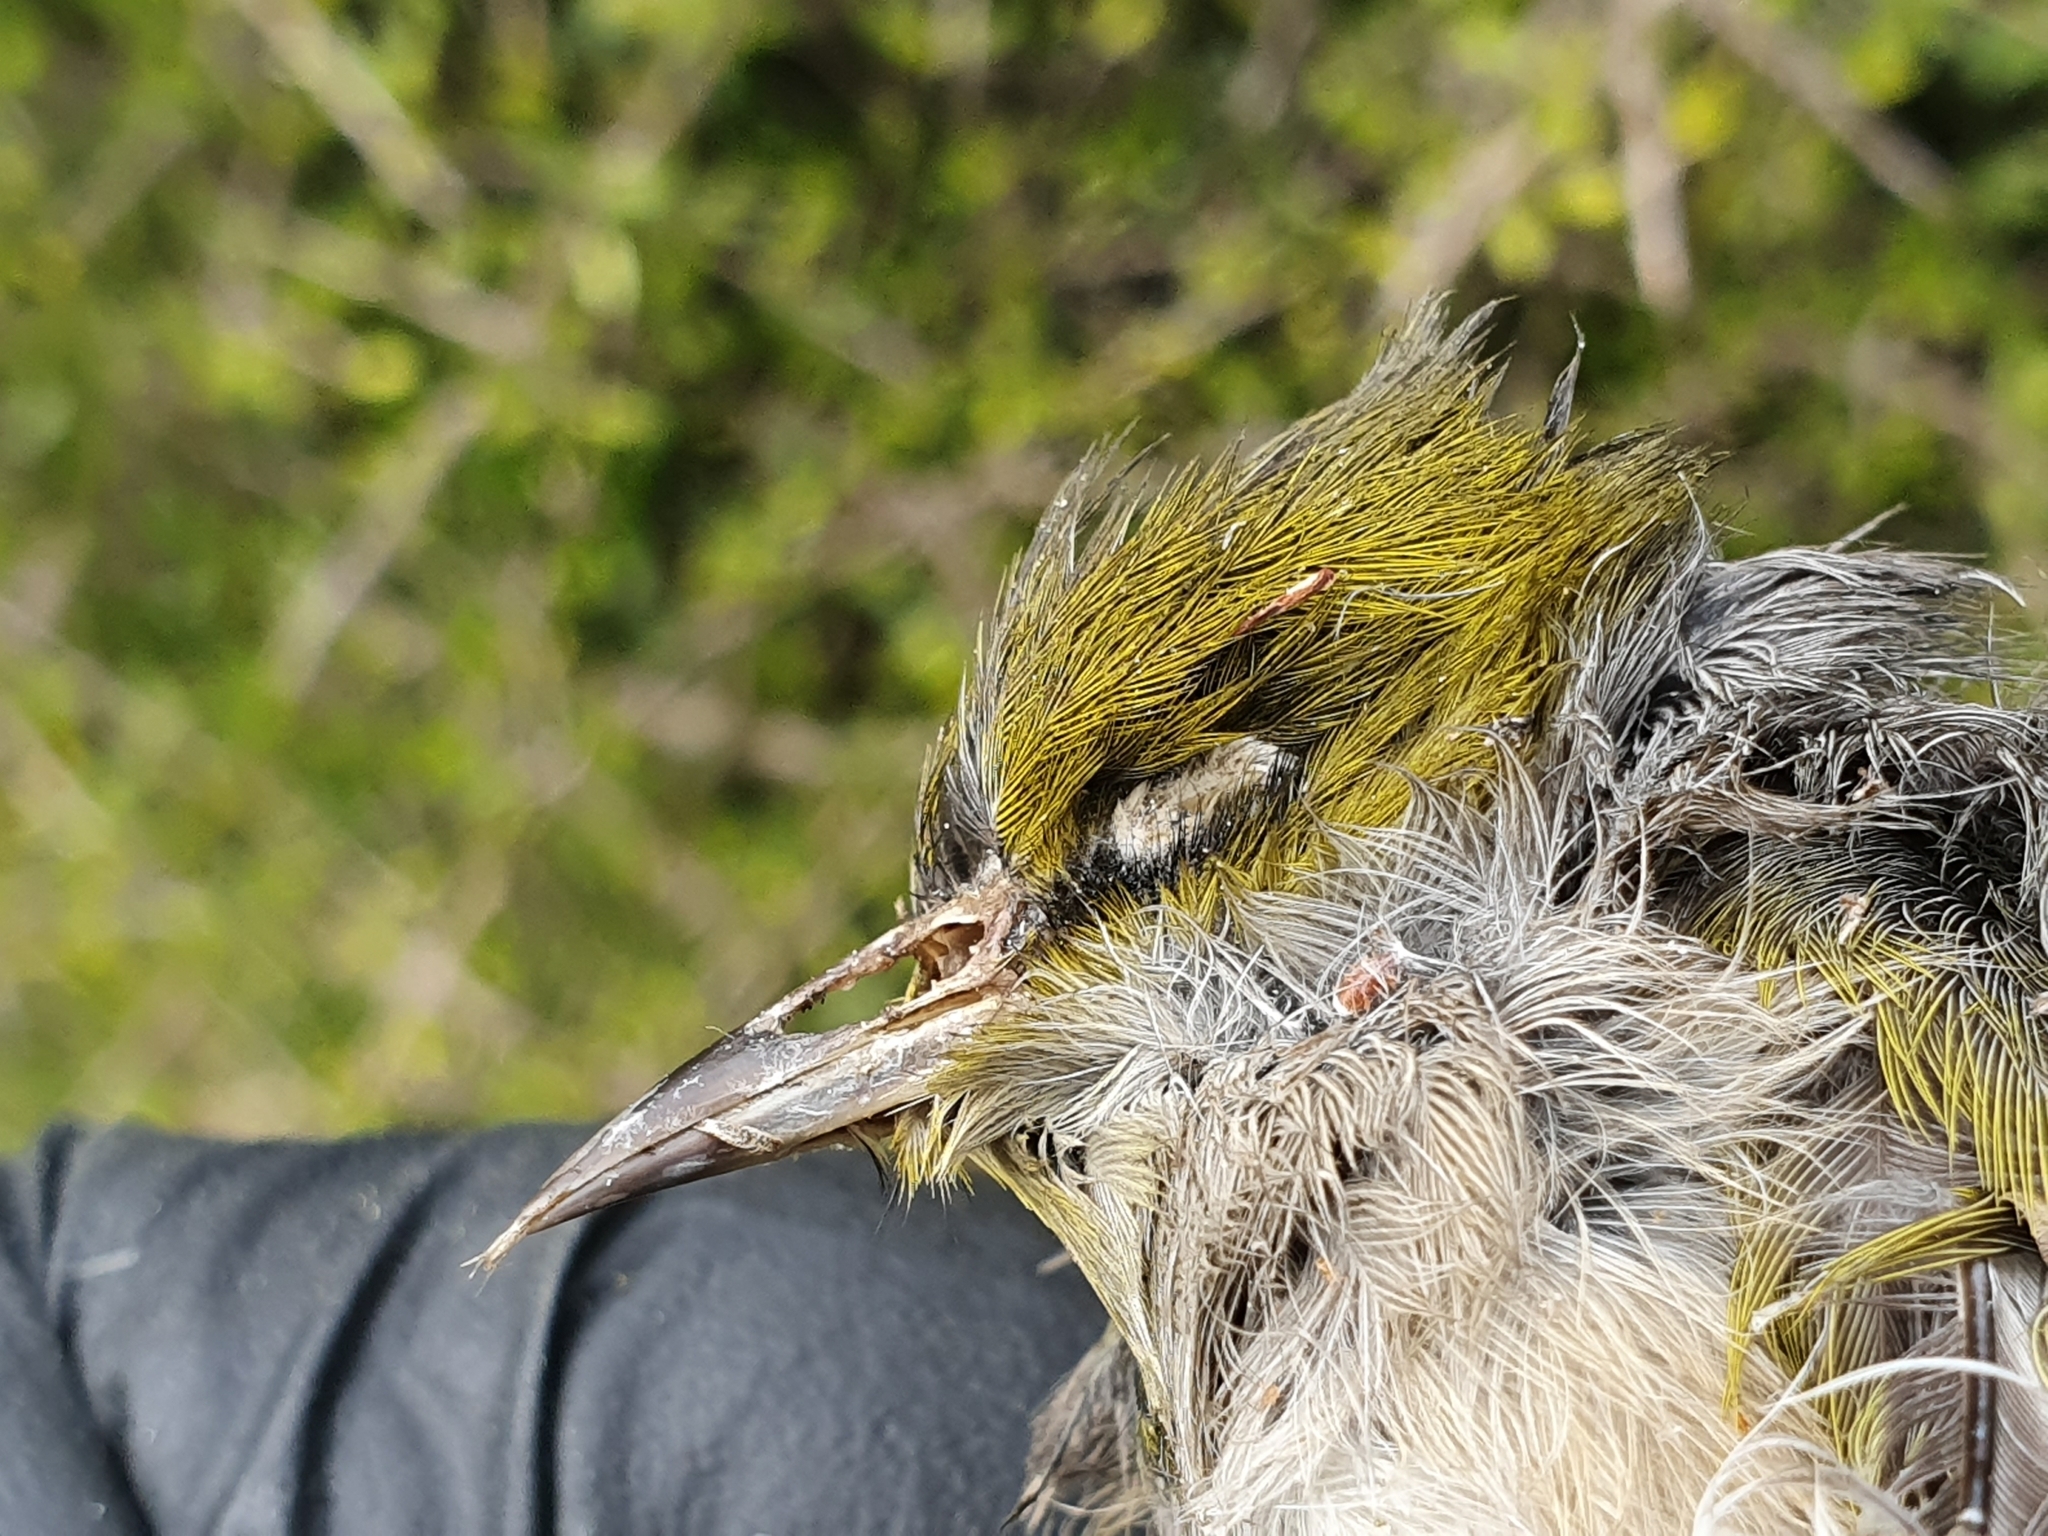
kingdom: Animalia
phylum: Chordata
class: Aves
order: Passeriformes
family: Zosteropidae
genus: Zosterops
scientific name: Zosterops lateralis
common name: Silvereye
